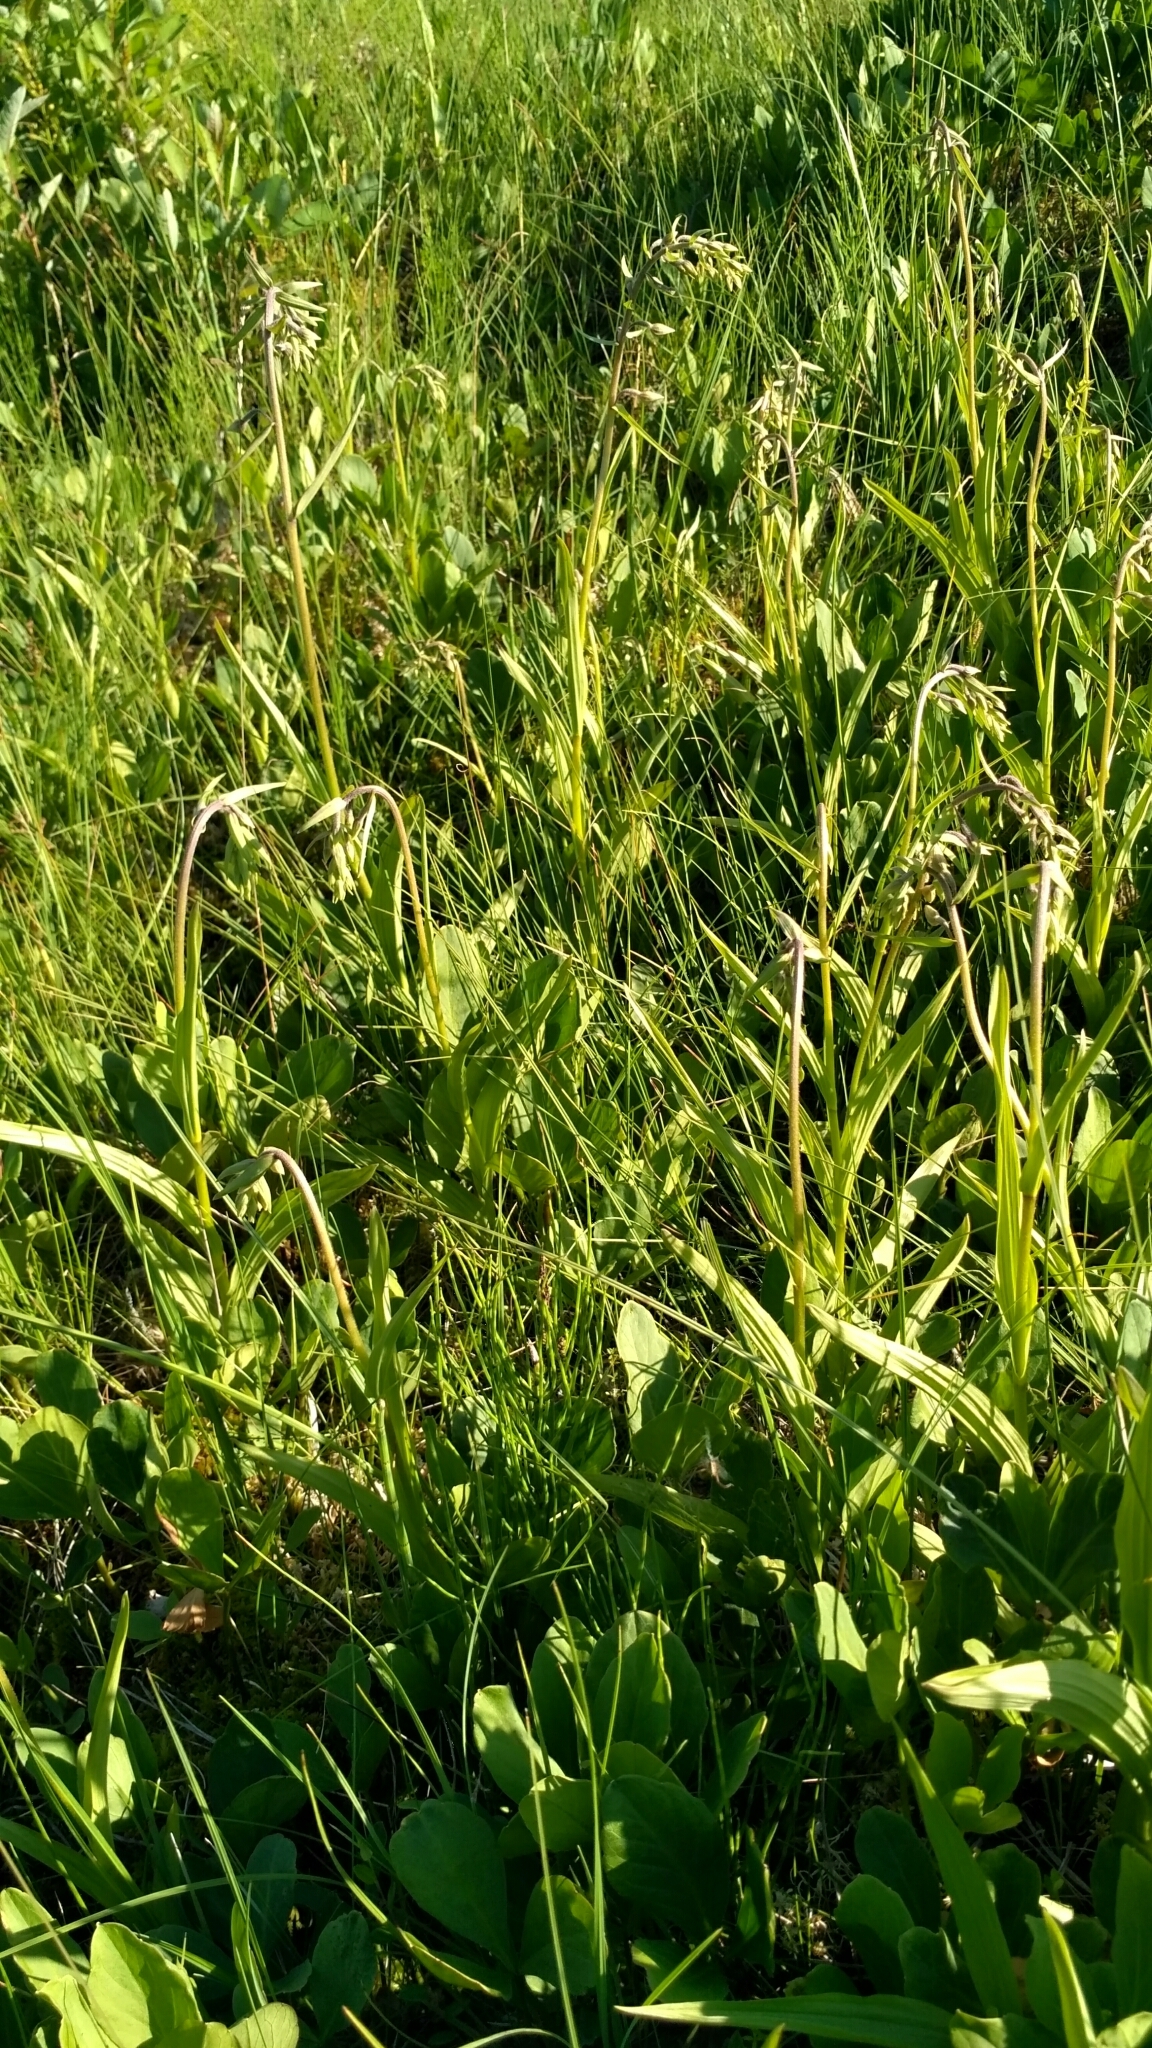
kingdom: Plantae
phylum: Tracheophyta
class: Liliopsida
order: Asparagales
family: Orchidaceae
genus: Epipactis
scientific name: Epipactis palustris
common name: Marsh helleborine
